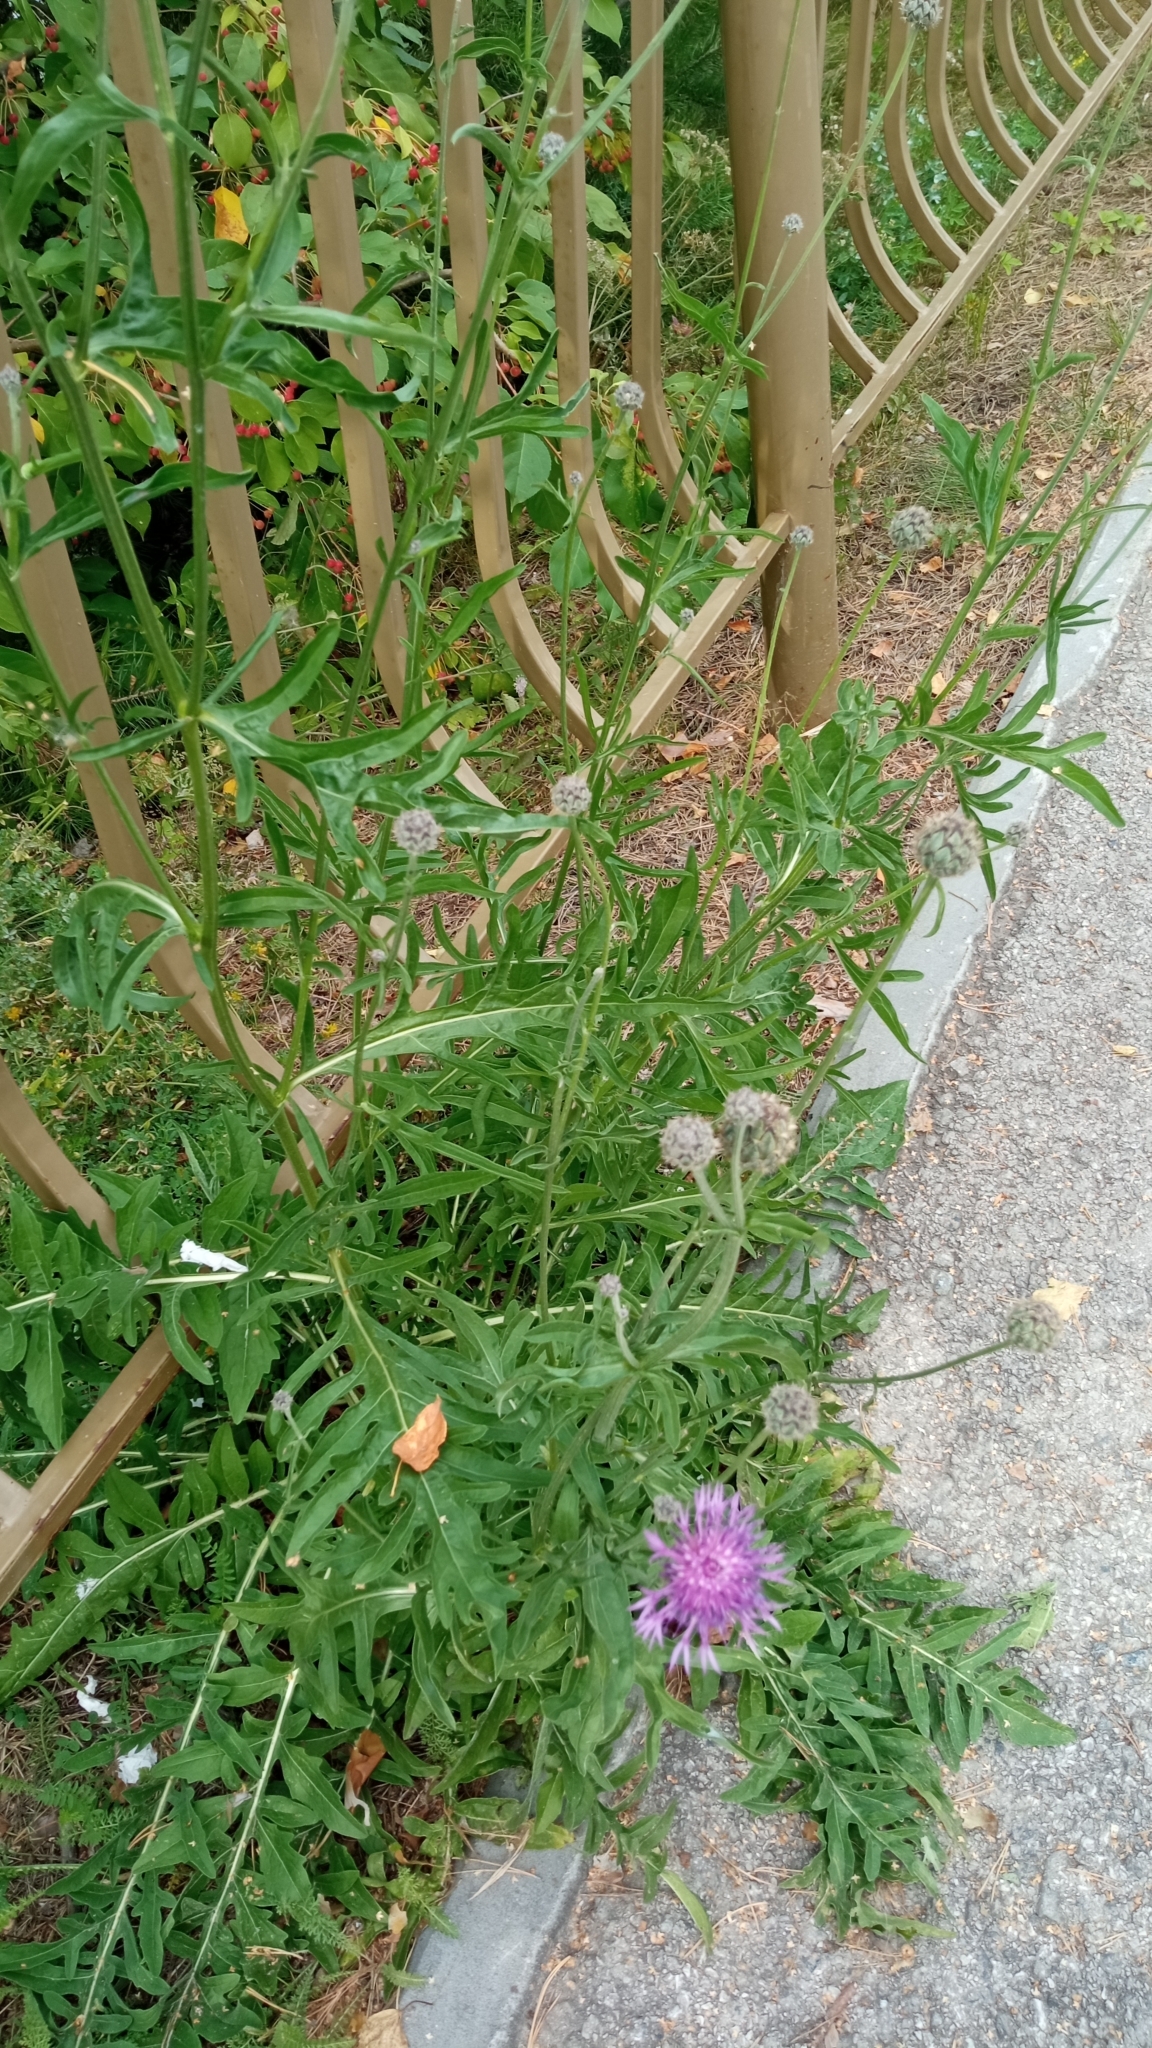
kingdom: Plantae
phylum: Tracheophyta
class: Magnoliopsida
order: Asterales
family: Asteraceae
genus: Centaurea
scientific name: Centaurea scabiosa
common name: Greater knapweed
